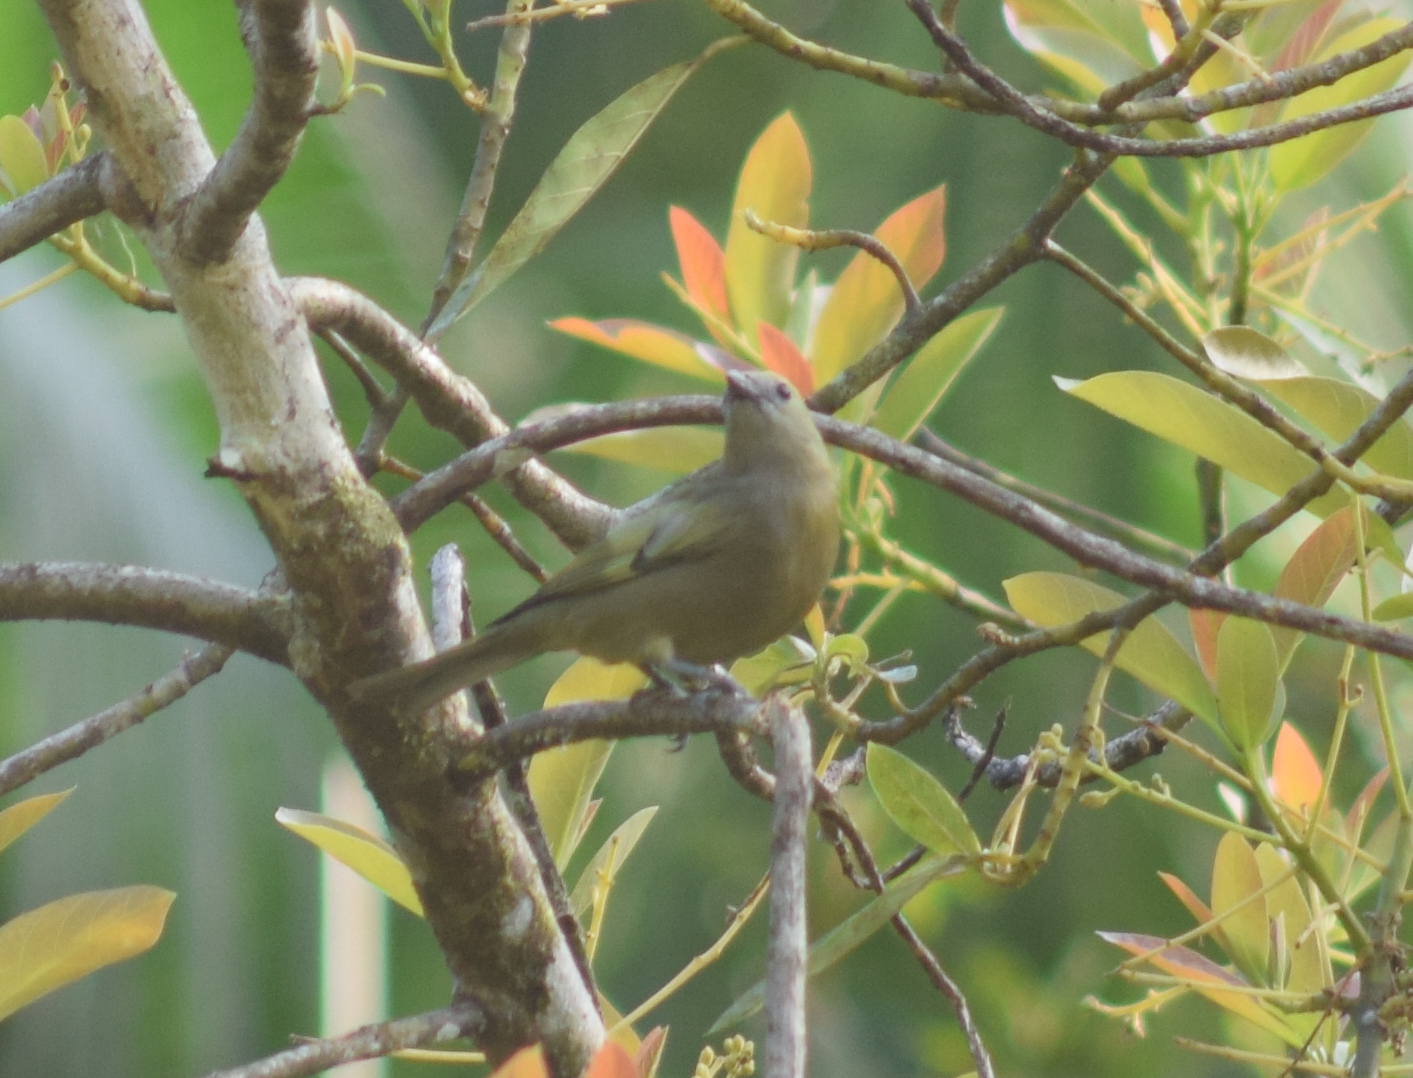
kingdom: Animalia
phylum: Chordata
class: Aves
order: Passeriformes
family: Thraupidae
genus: Thraupis
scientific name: Thraupis palmarum
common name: Palm tanager
